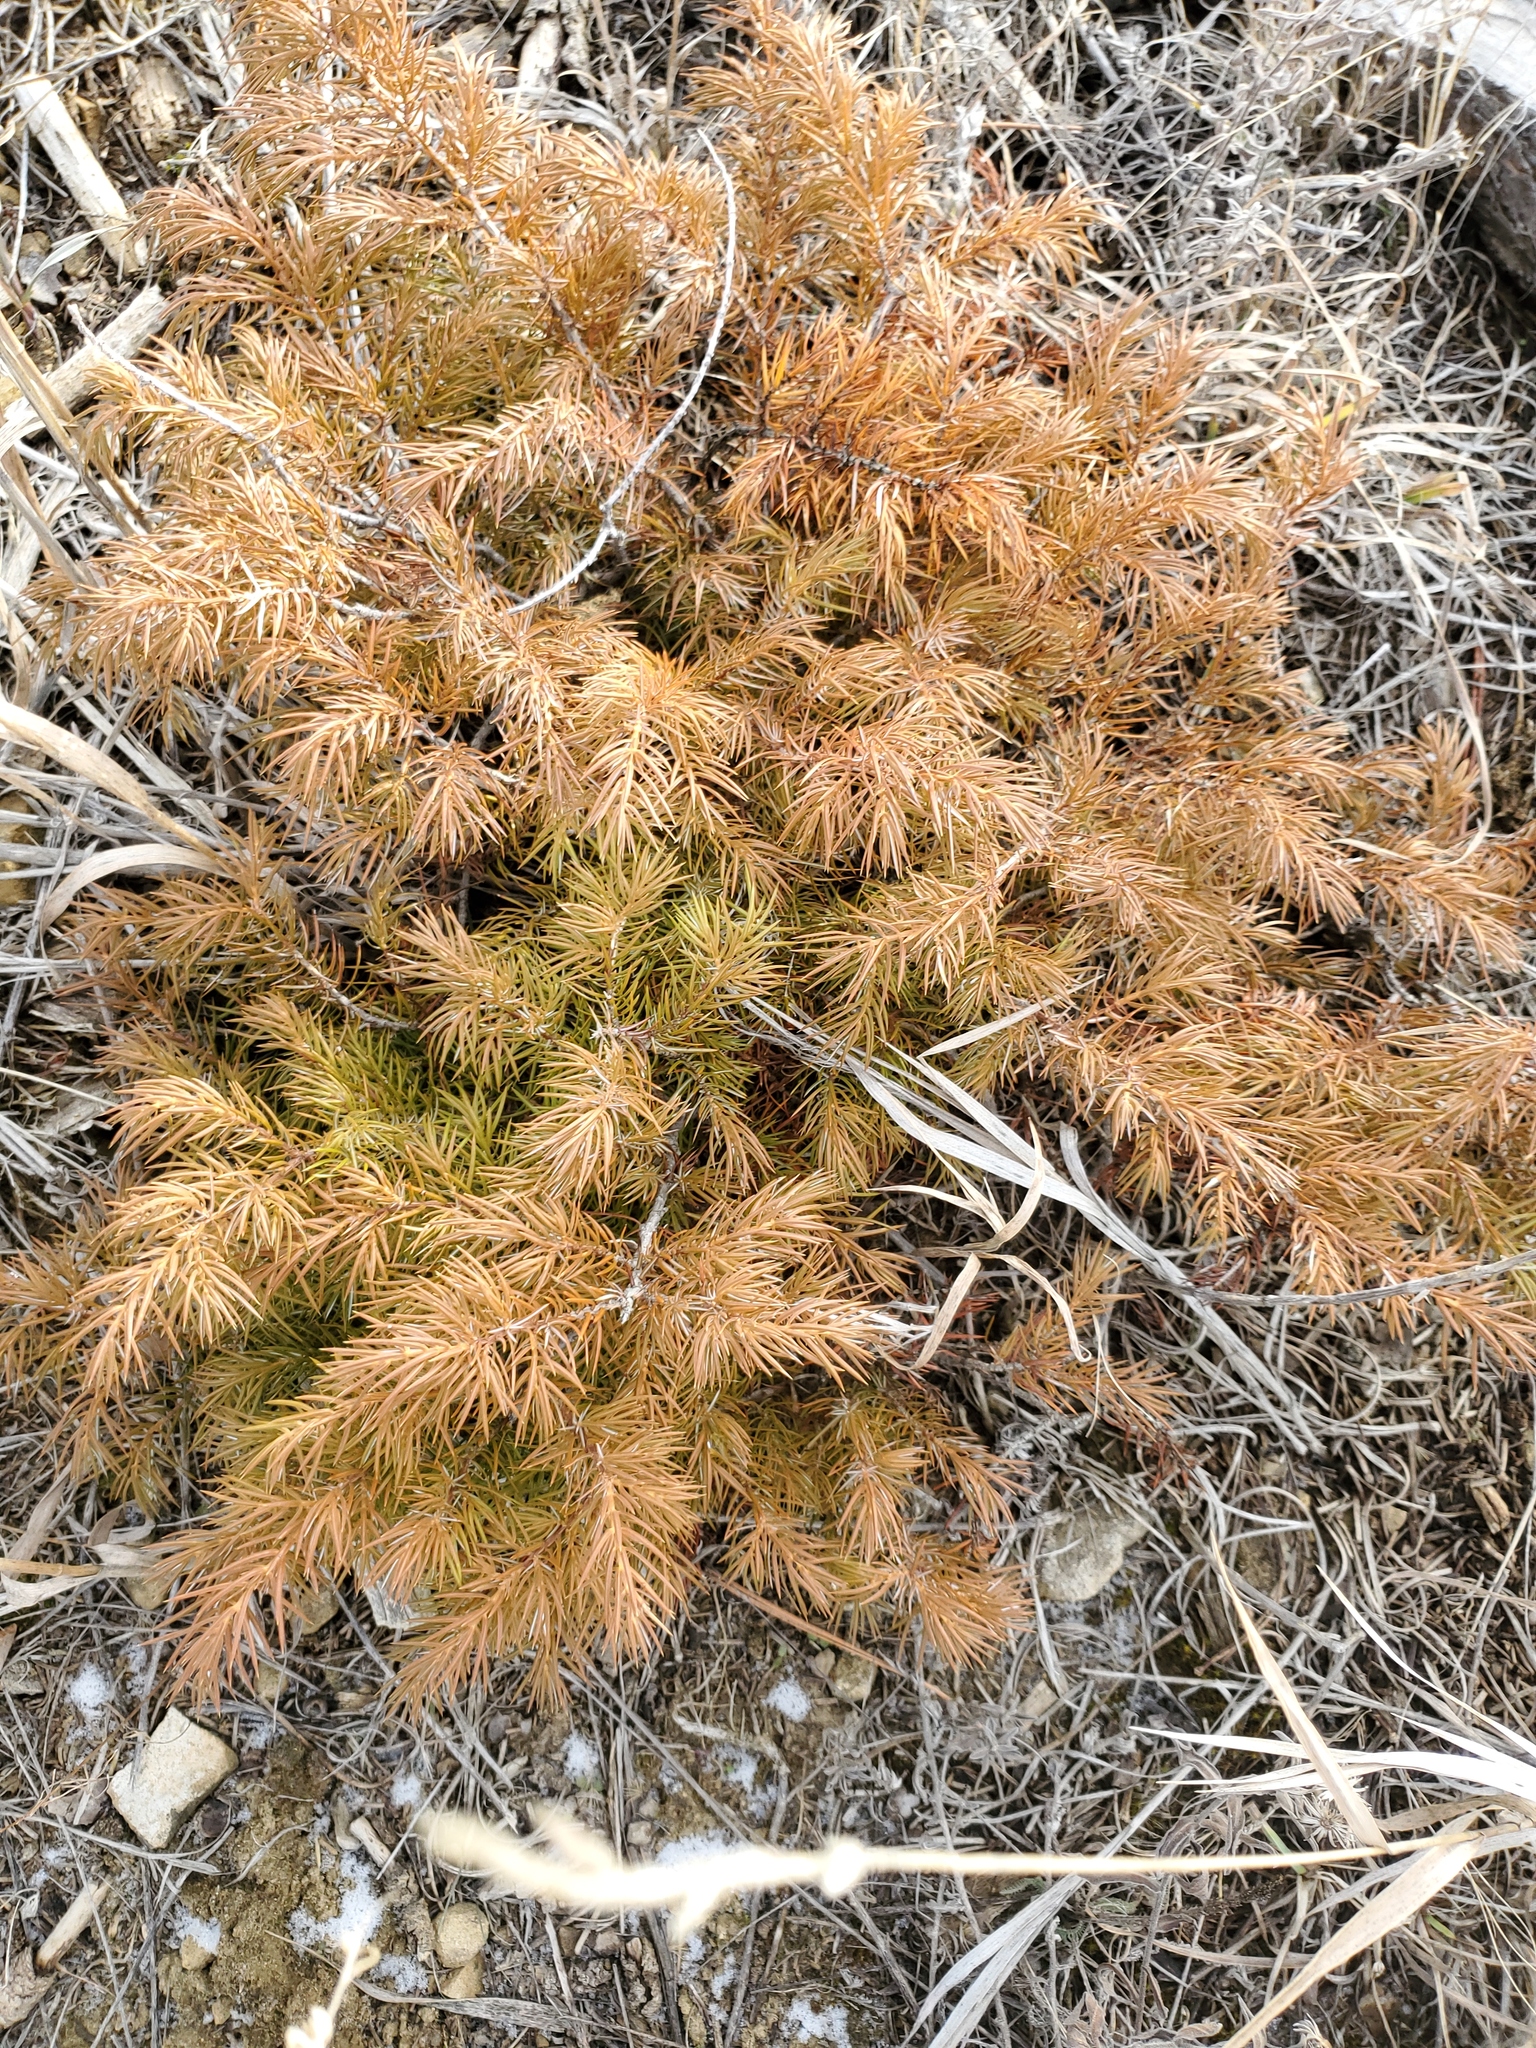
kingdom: Plantae
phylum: Tracheophyta
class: Pinopsida
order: Pinales
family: Cupressaceae
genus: Juniperus
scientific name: Juniperus communis
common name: Common juniper
